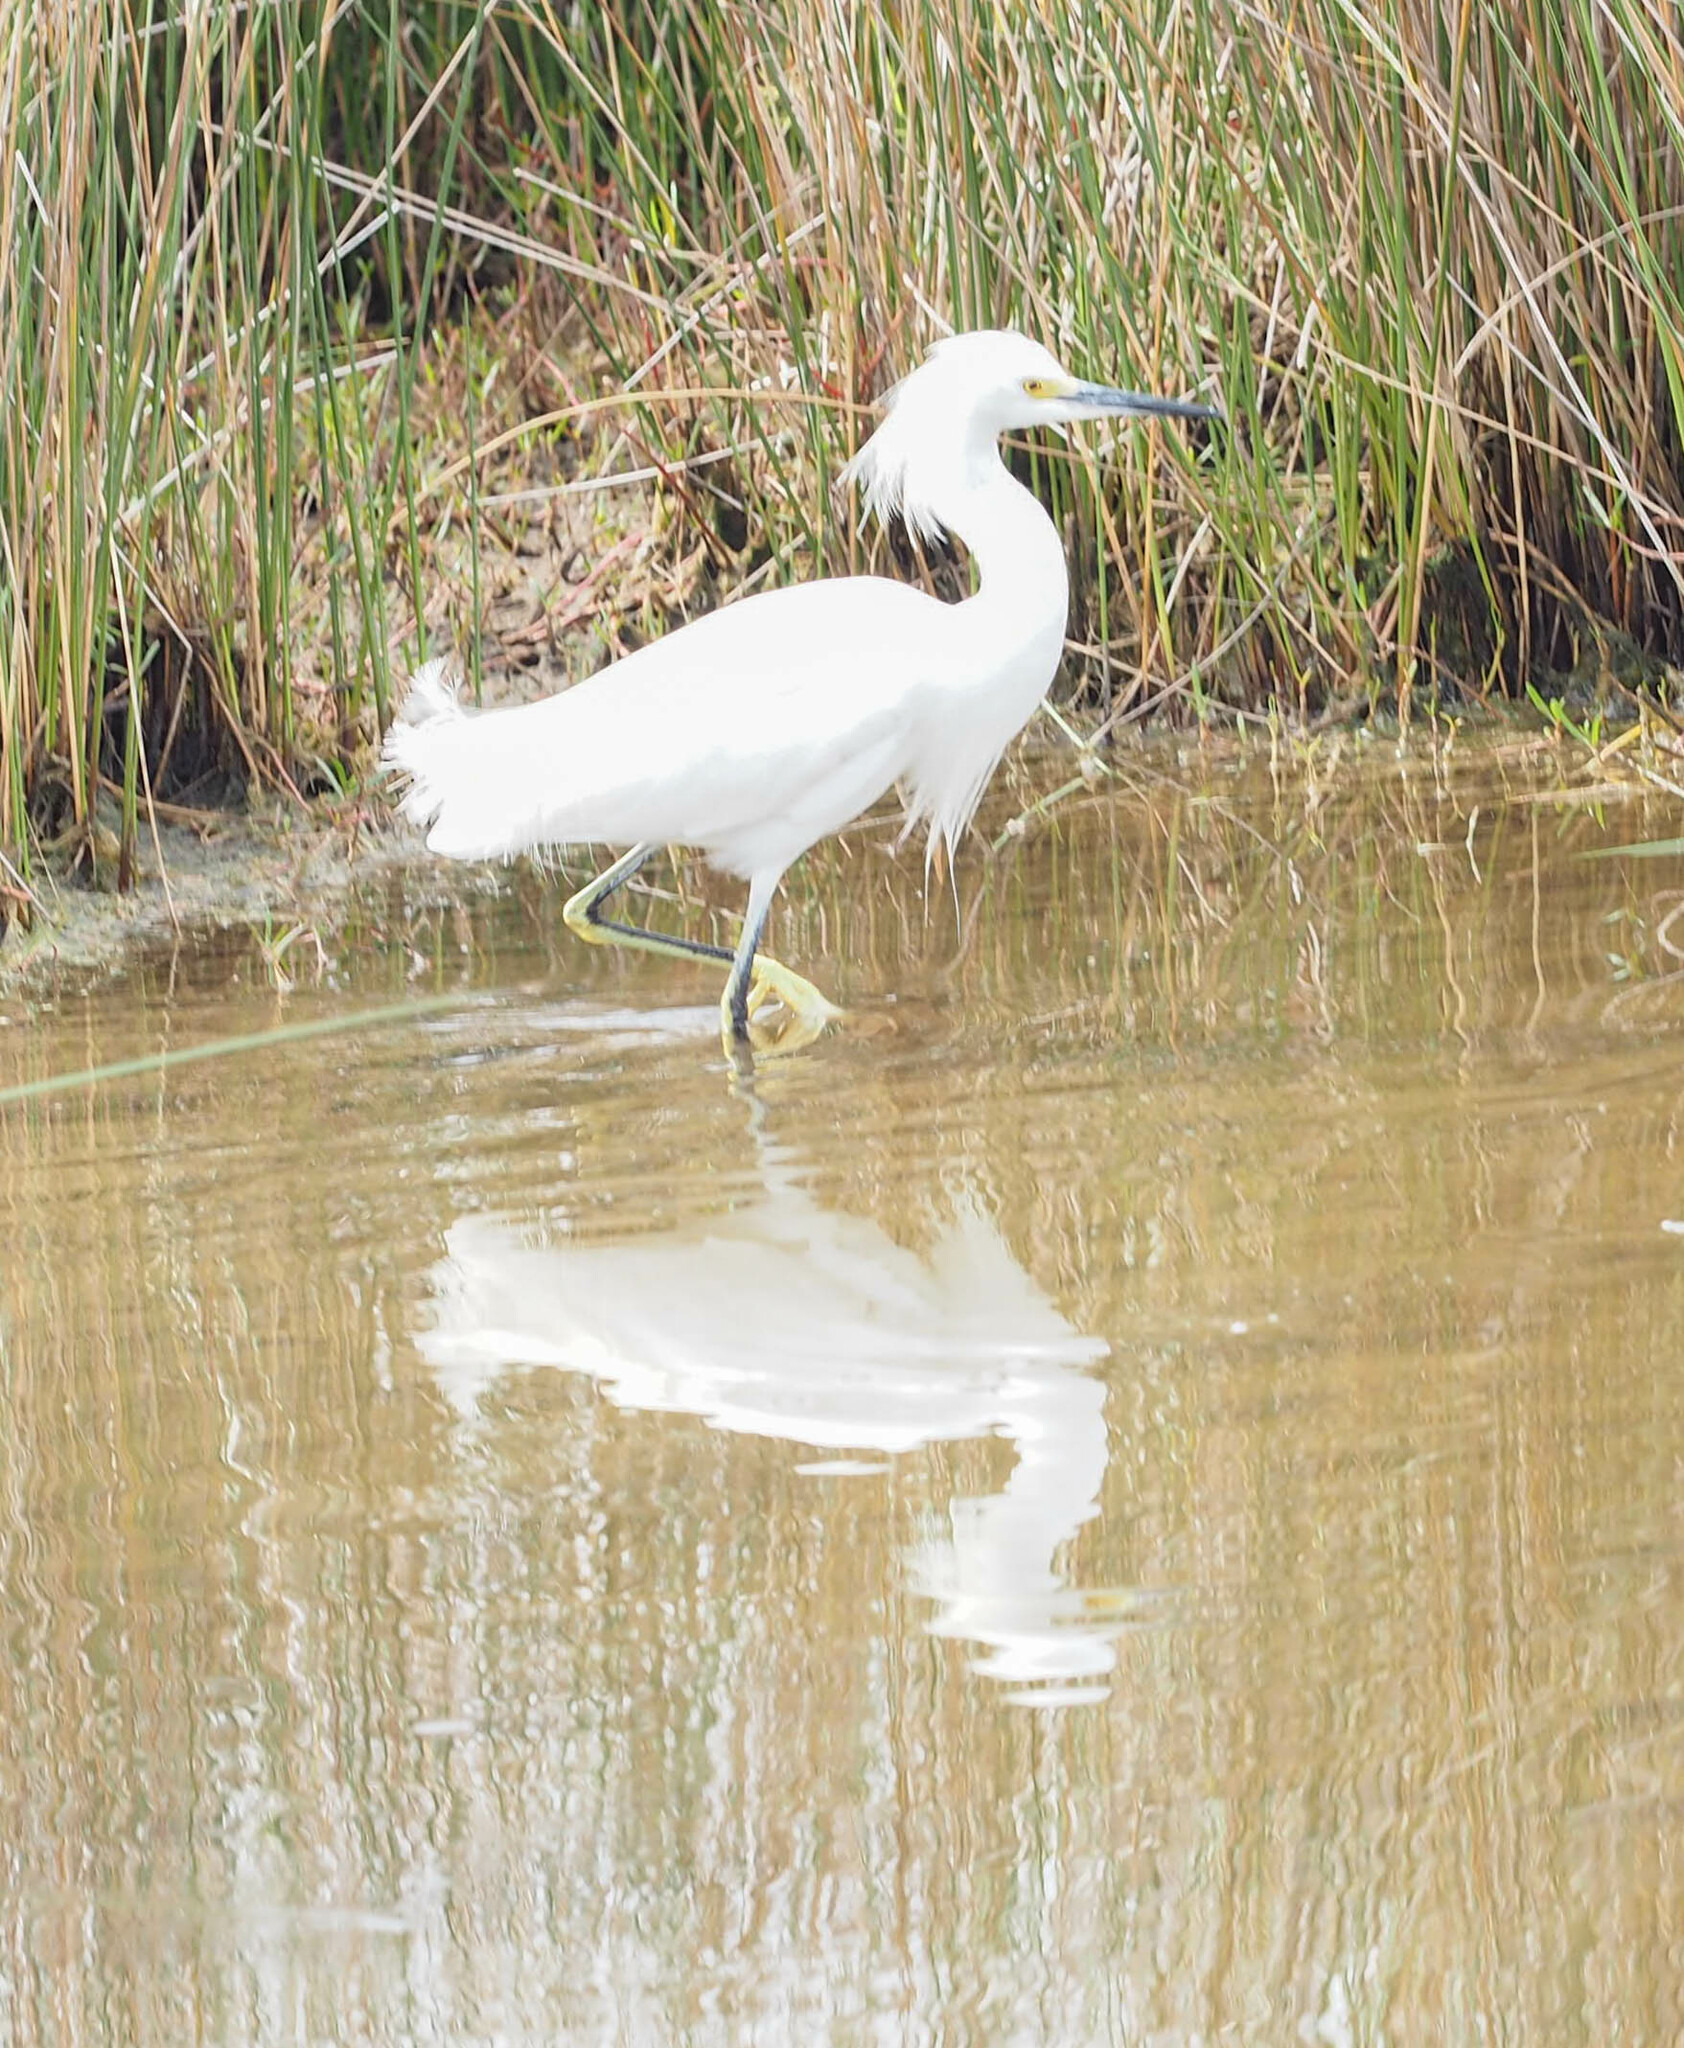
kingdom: Animalia
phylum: Chordata
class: Aves
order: Pelecaniformes
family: Ardeidae
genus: Egretta
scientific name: Egretta thula
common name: Snowy egret
